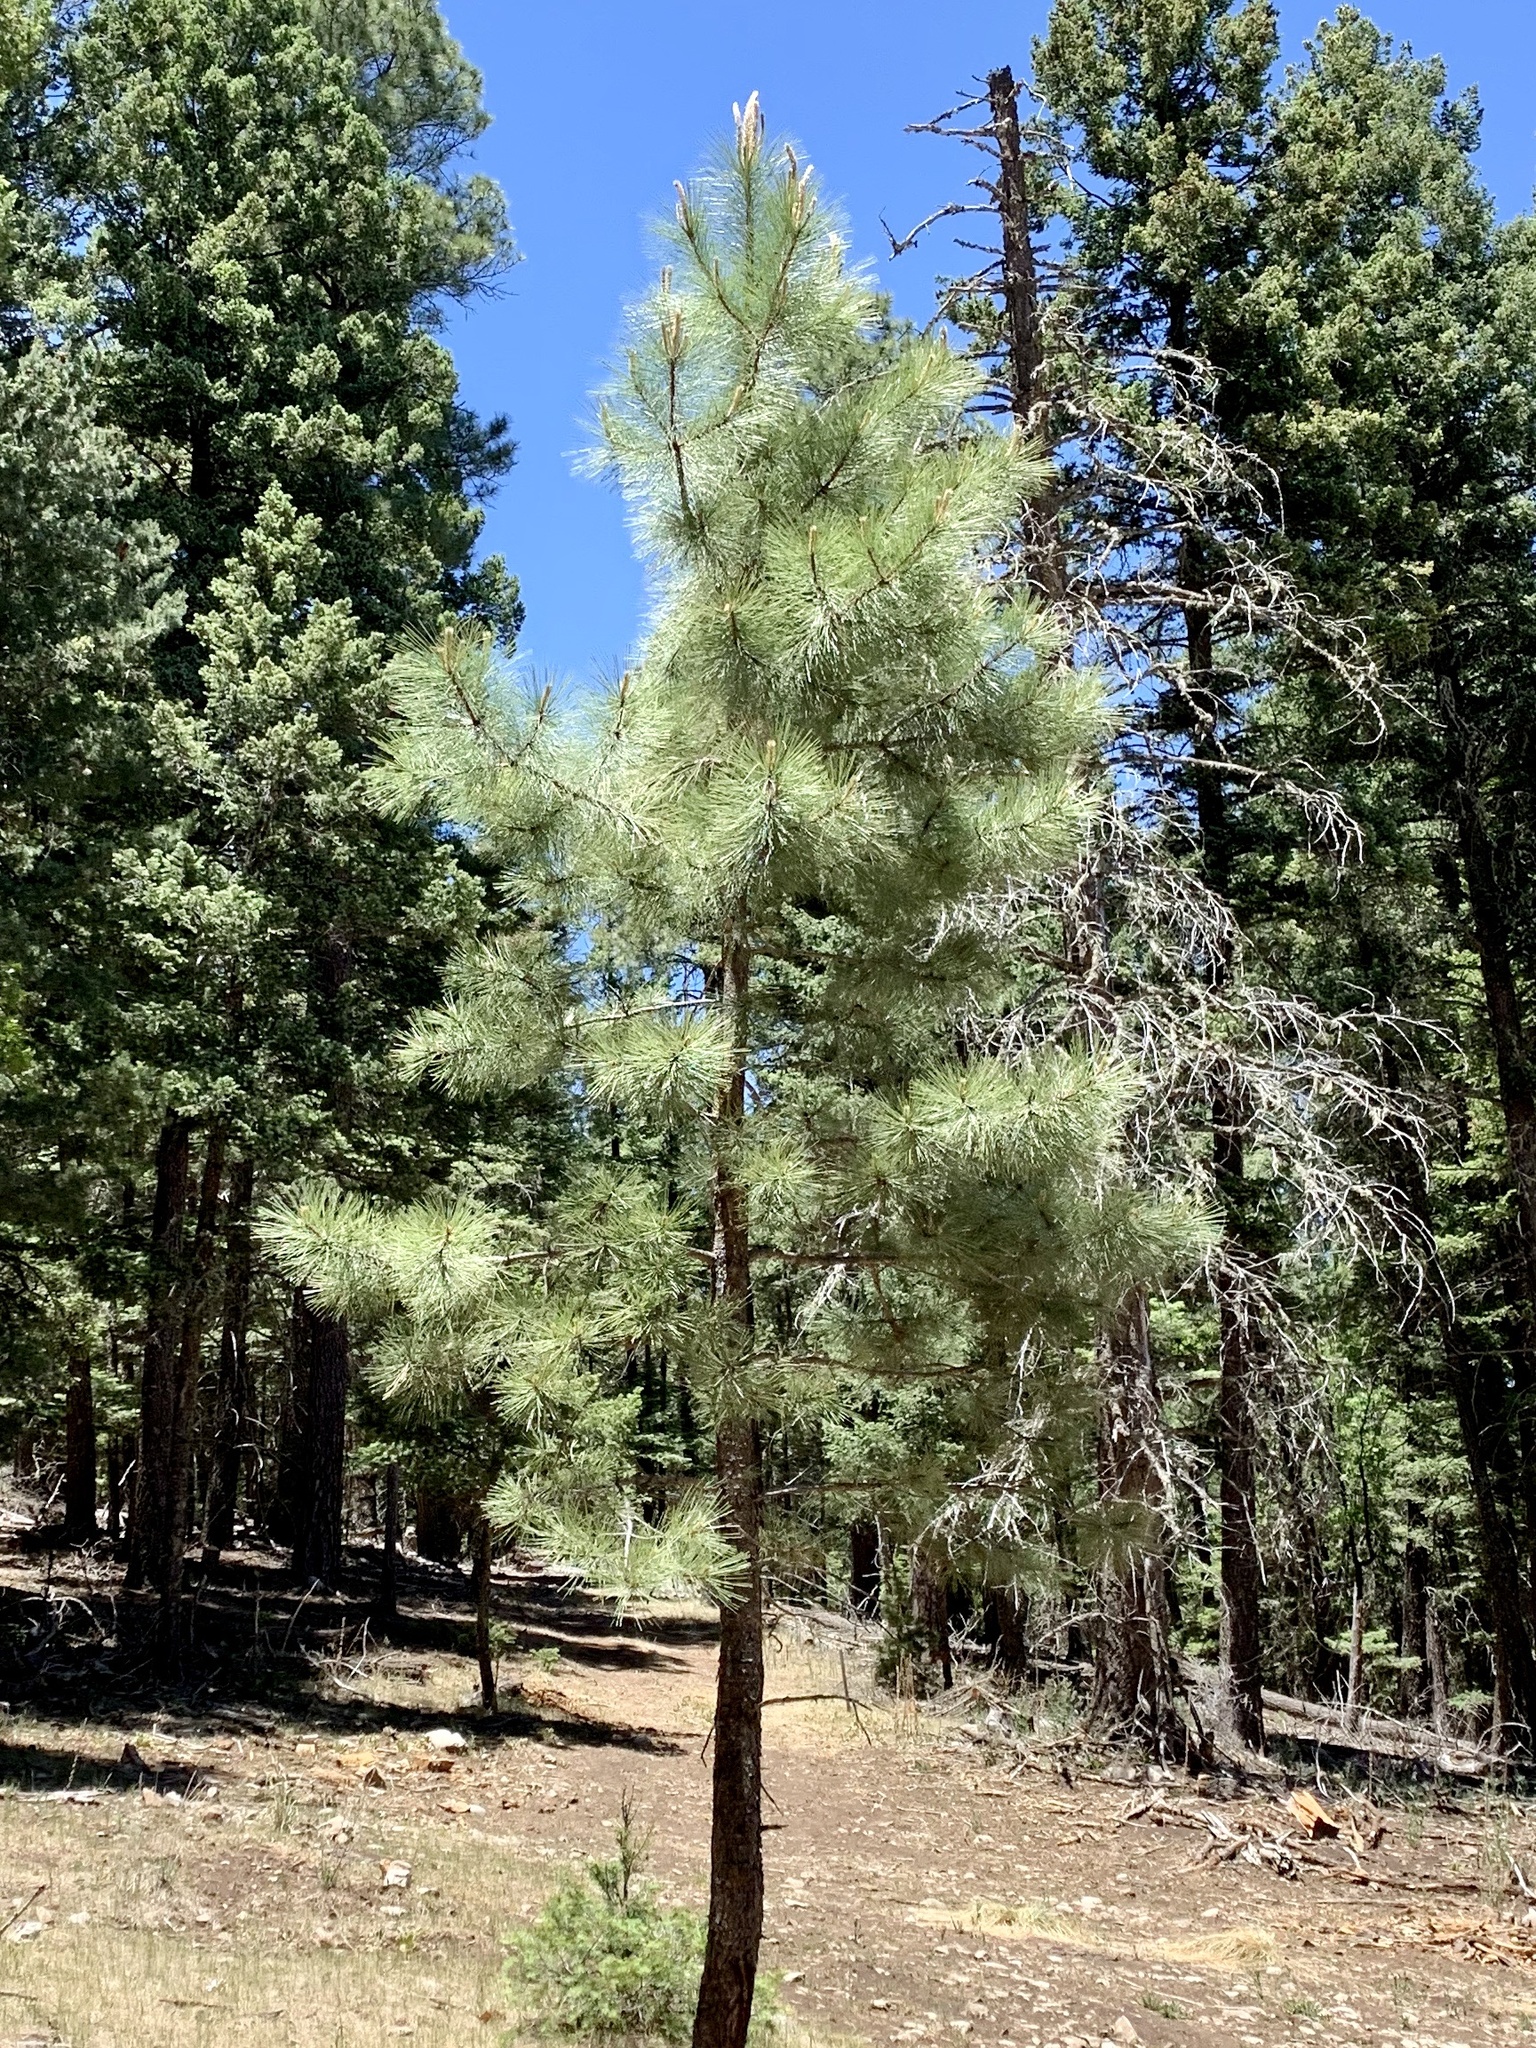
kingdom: Plantae
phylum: Tracheophyta
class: Pinopsida
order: Pinales
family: Pinaceae
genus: Pinus
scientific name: Pinus ponderosa
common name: Western yellow-pine
